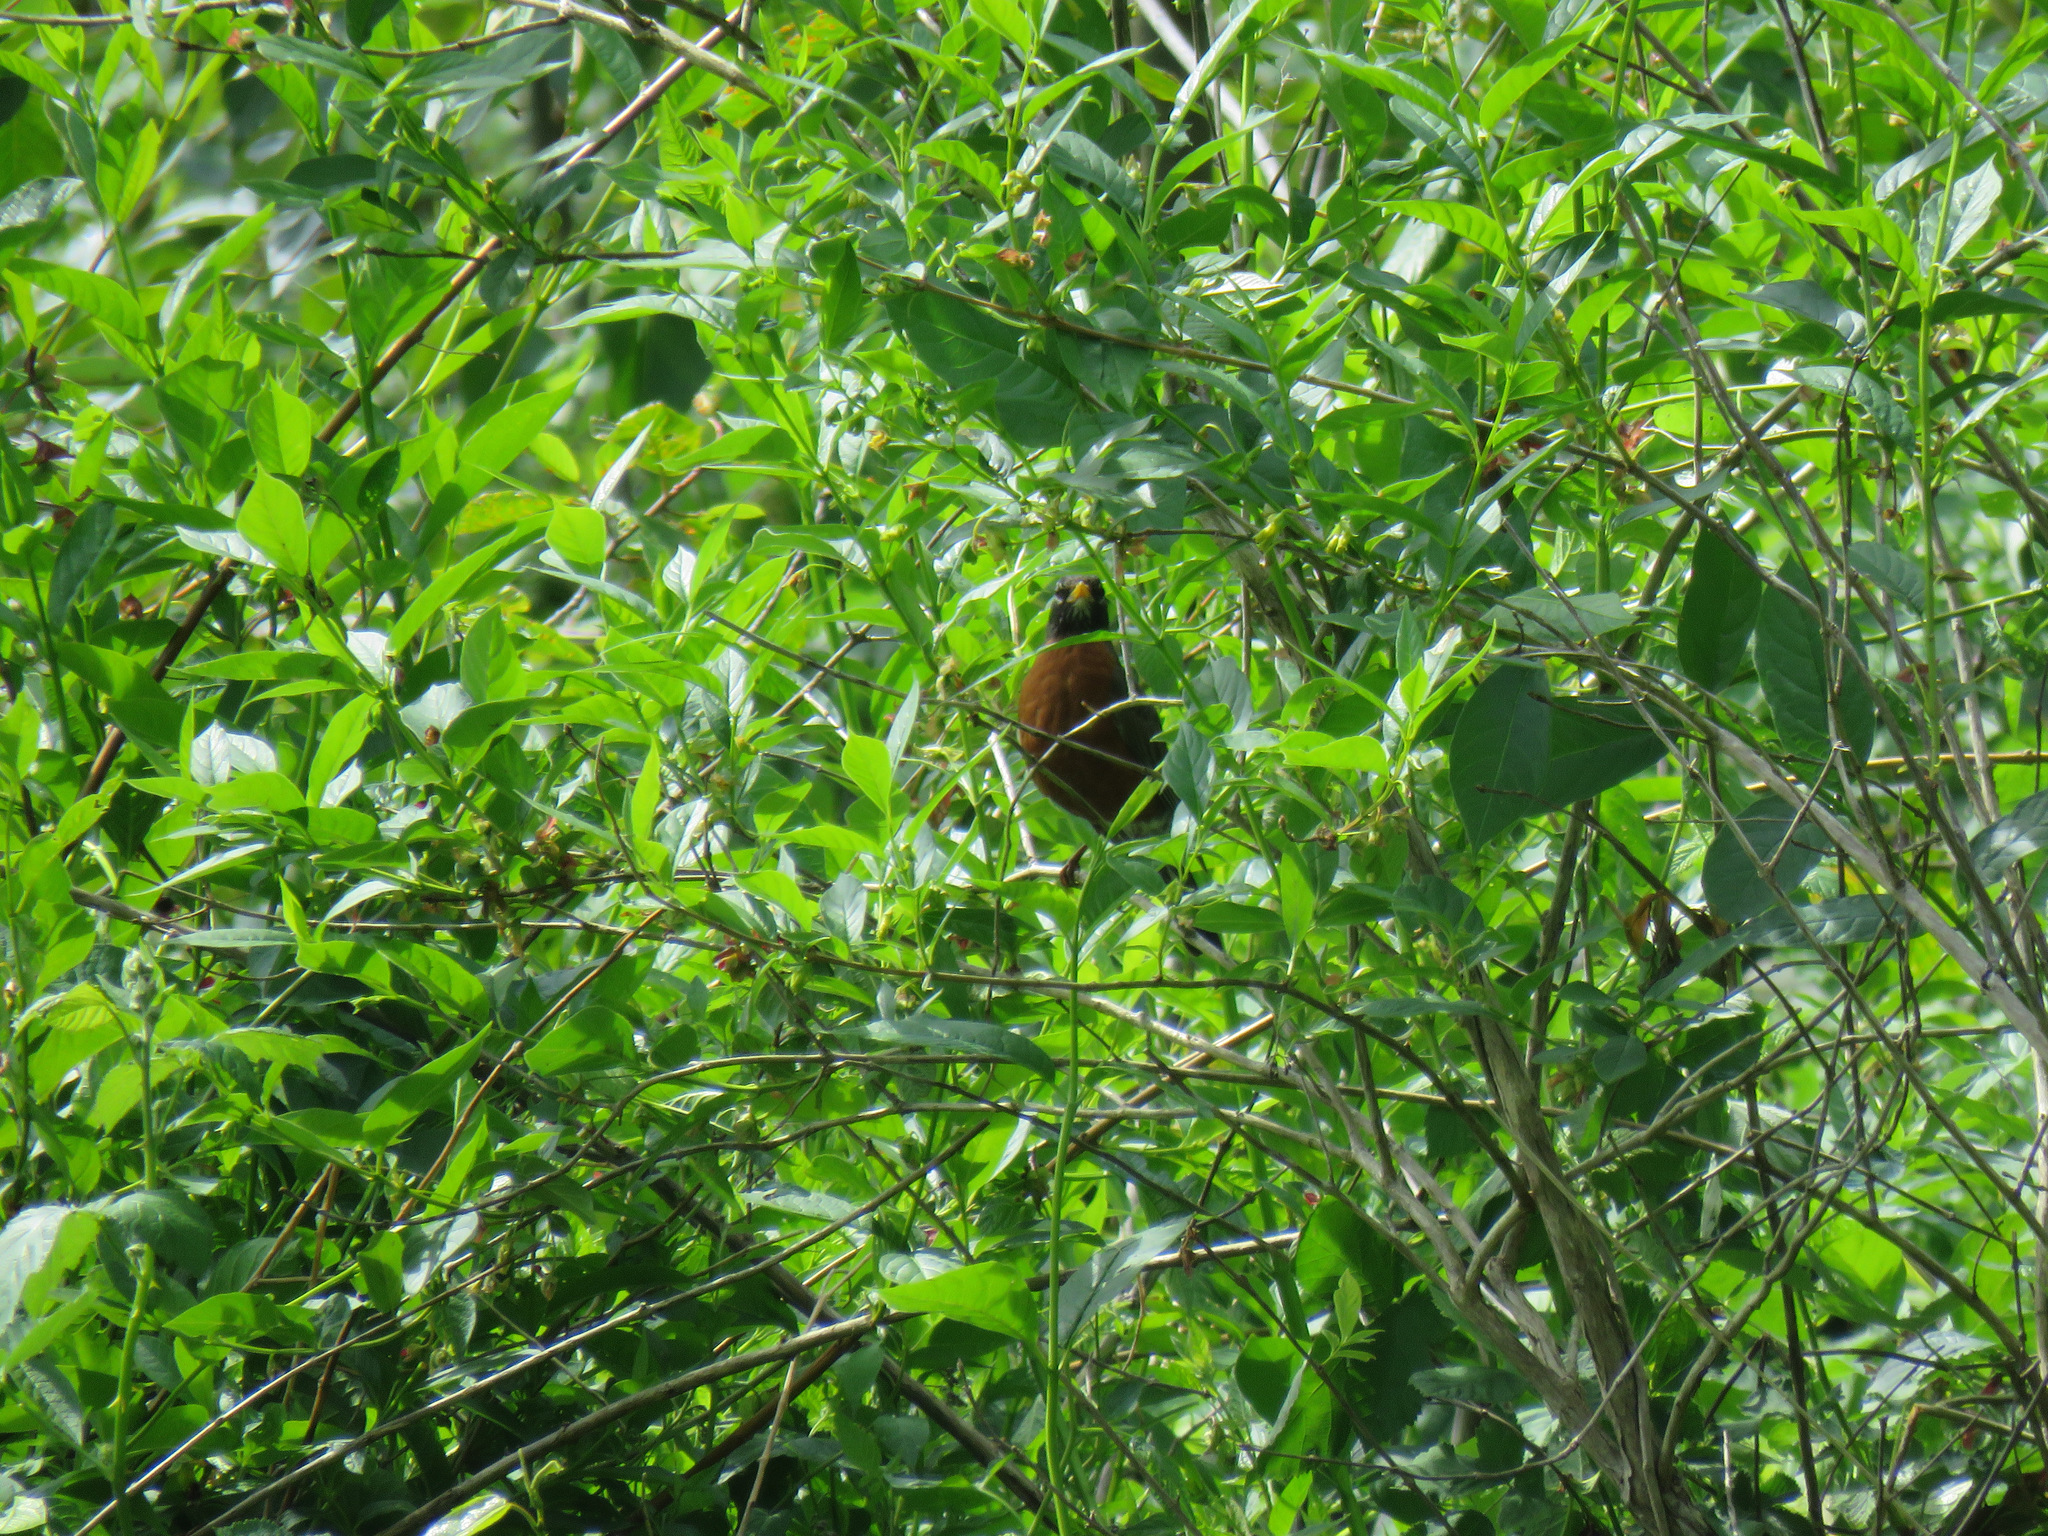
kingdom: Animalia
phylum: Chordata
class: Aves
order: Passeriformes
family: Turdidae
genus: Turdus
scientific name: Turdus migratorius
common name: American robin
